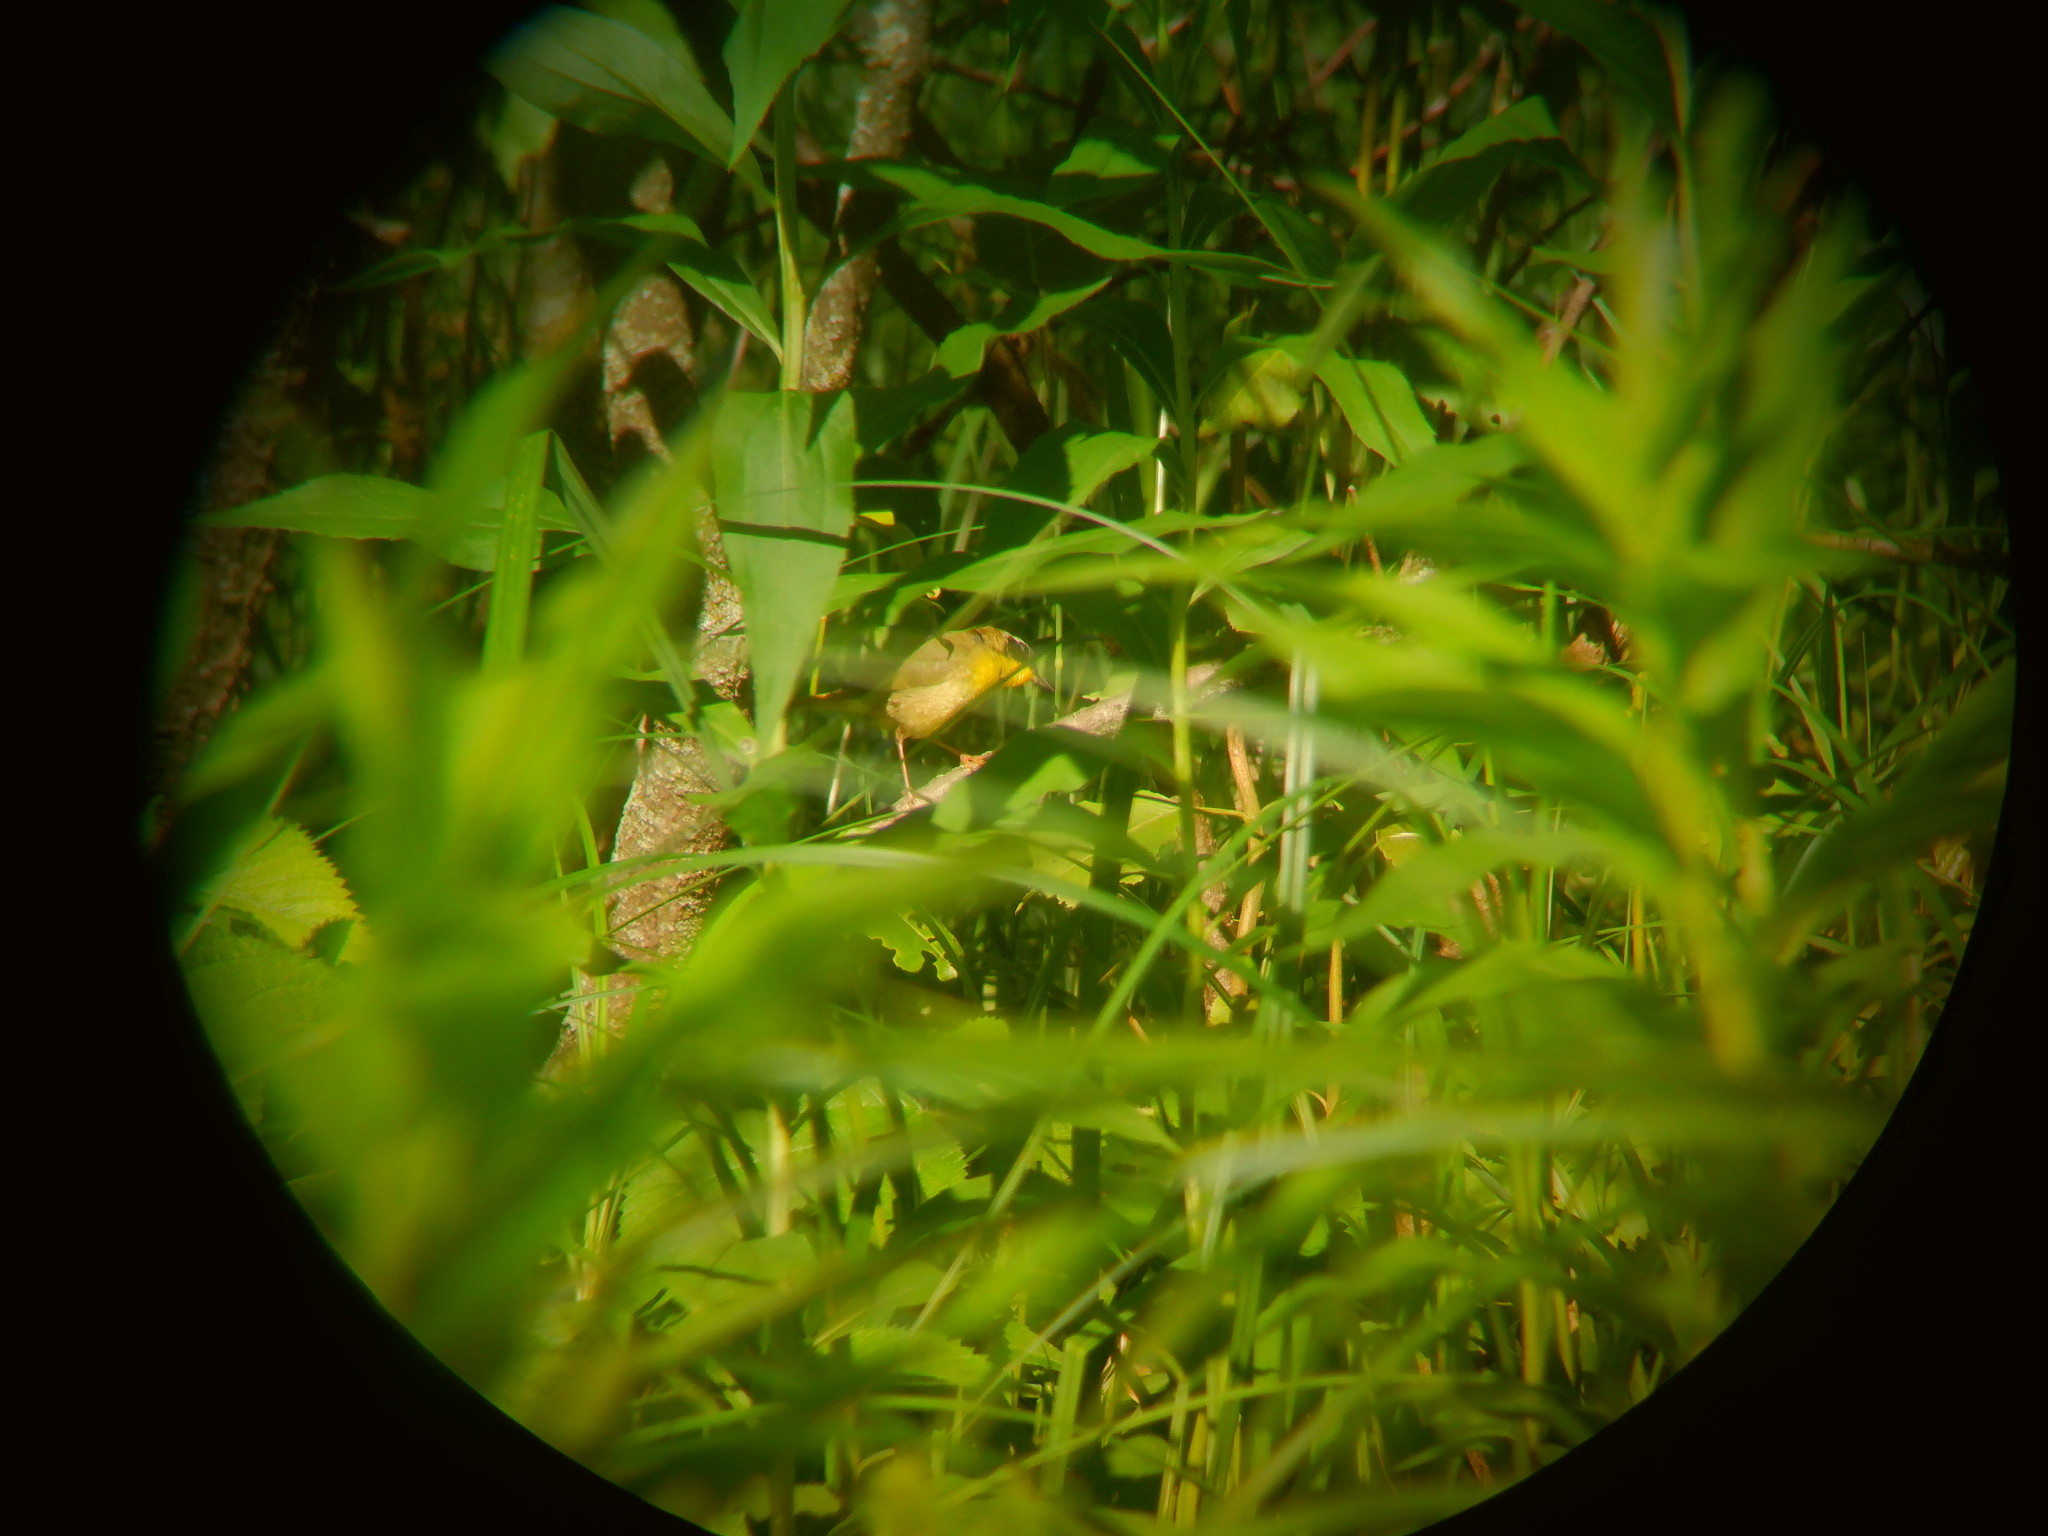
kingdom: Animalia
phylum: Chordata
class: Aves
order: Passeriformes
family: Parulidae
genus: Geothlypis
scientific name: Geothlypis trichas
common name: Common yellowthroat
